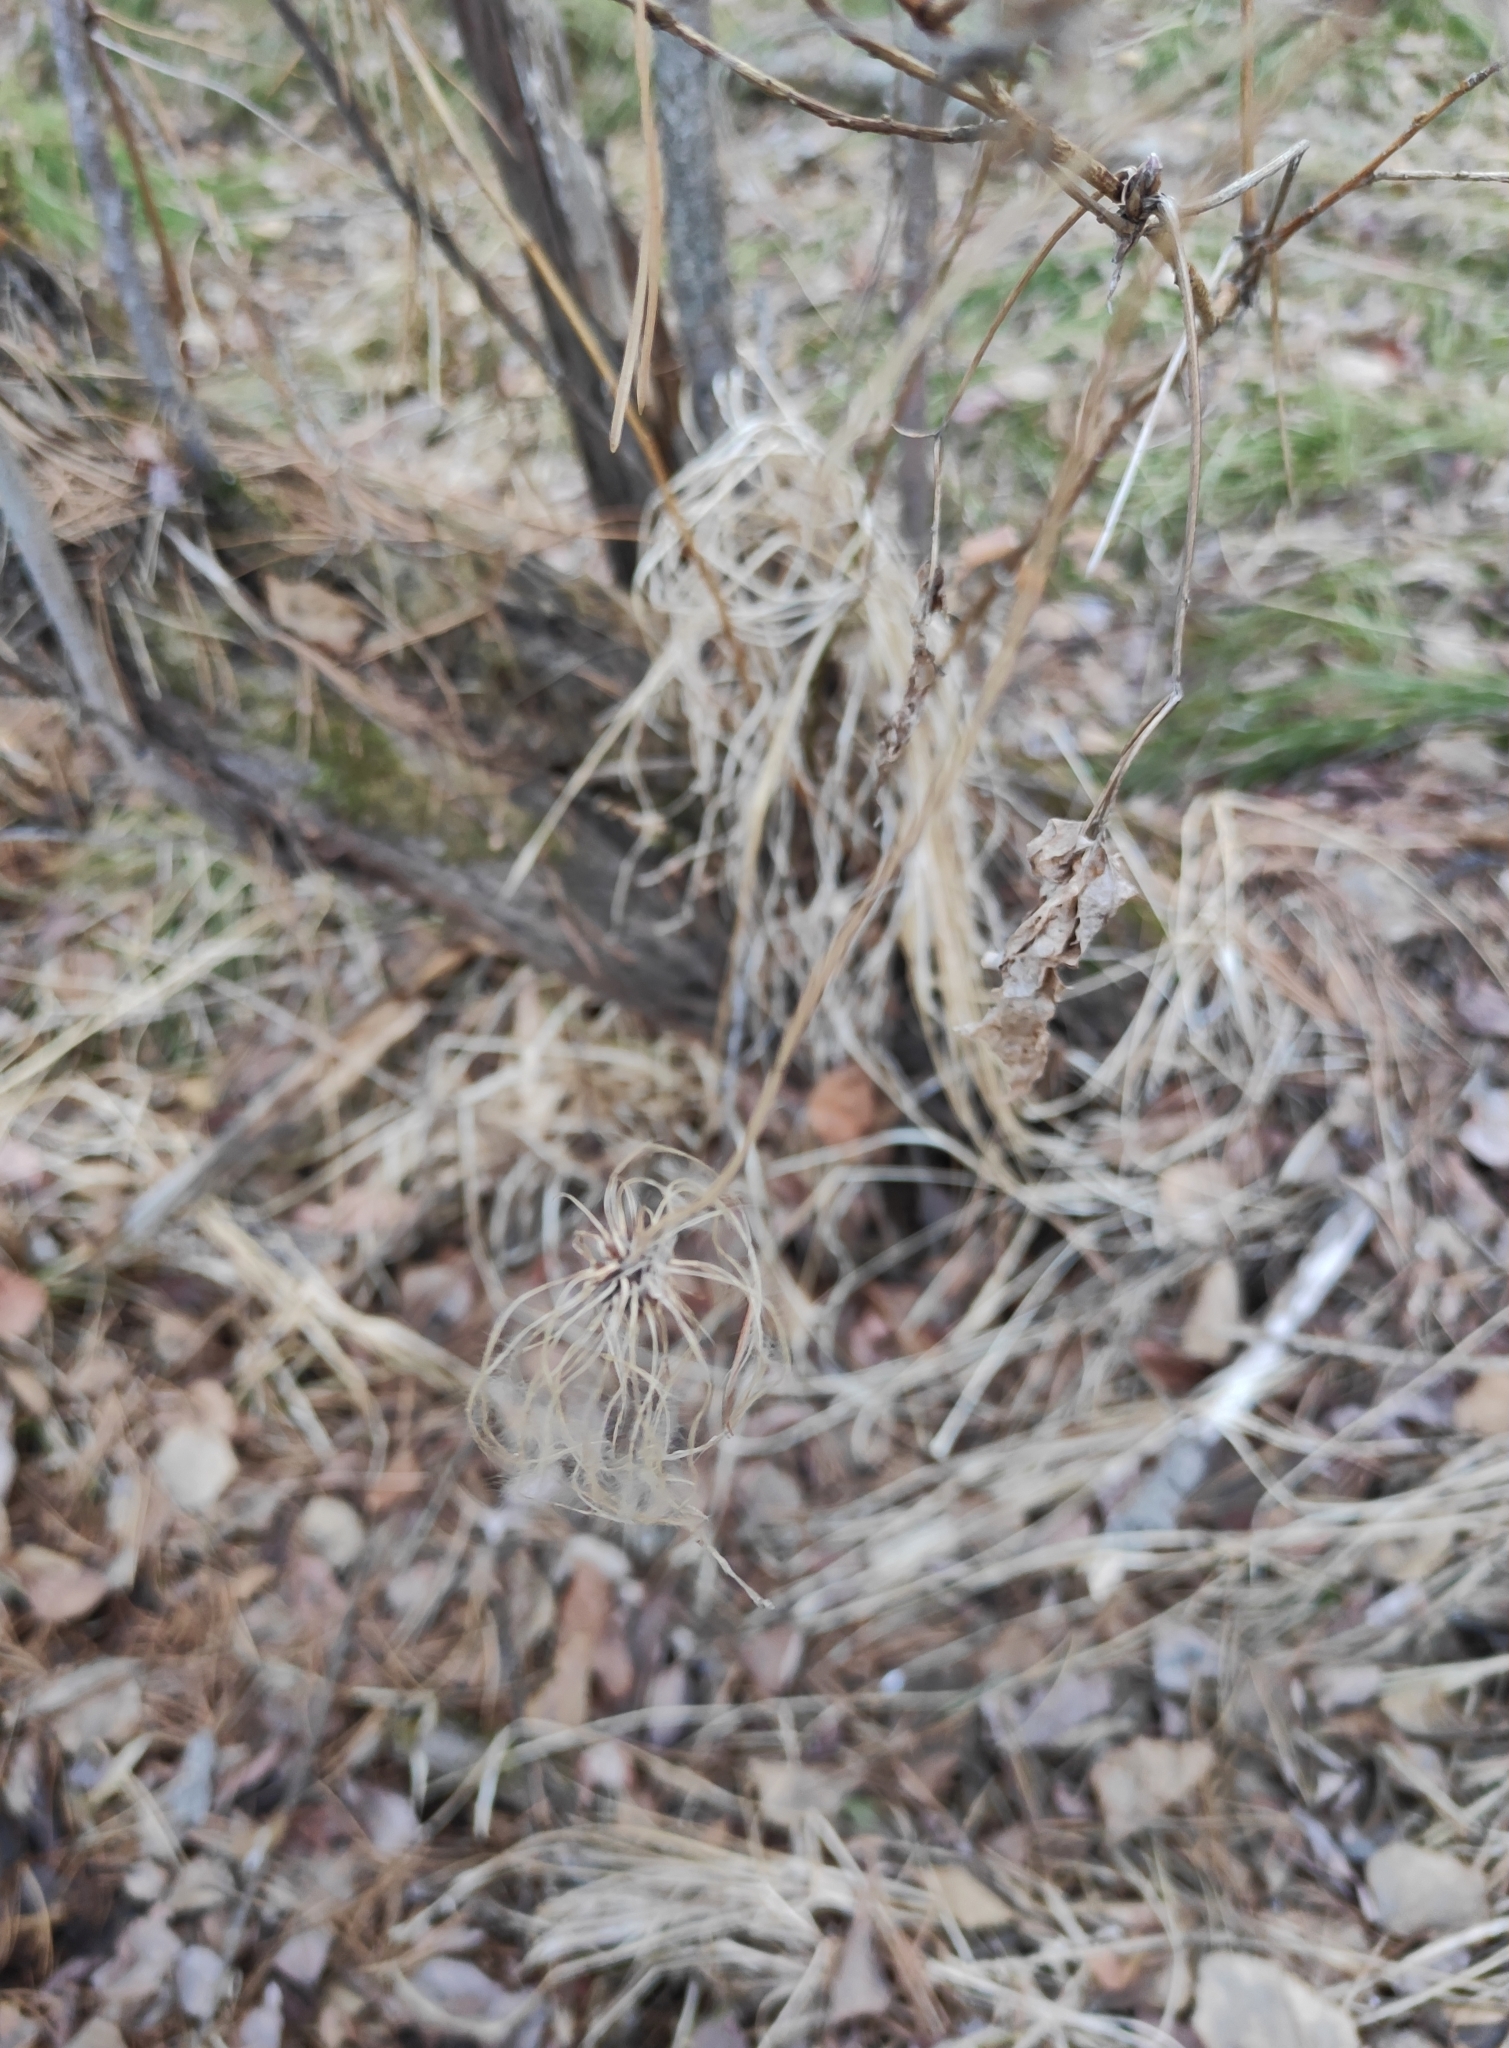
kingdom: Plantae
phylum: Tracheophyta
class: Magnoliopsida
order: Ranunculales
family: Ranunculaceae
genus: Clematis
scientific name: Clematis sibirica
